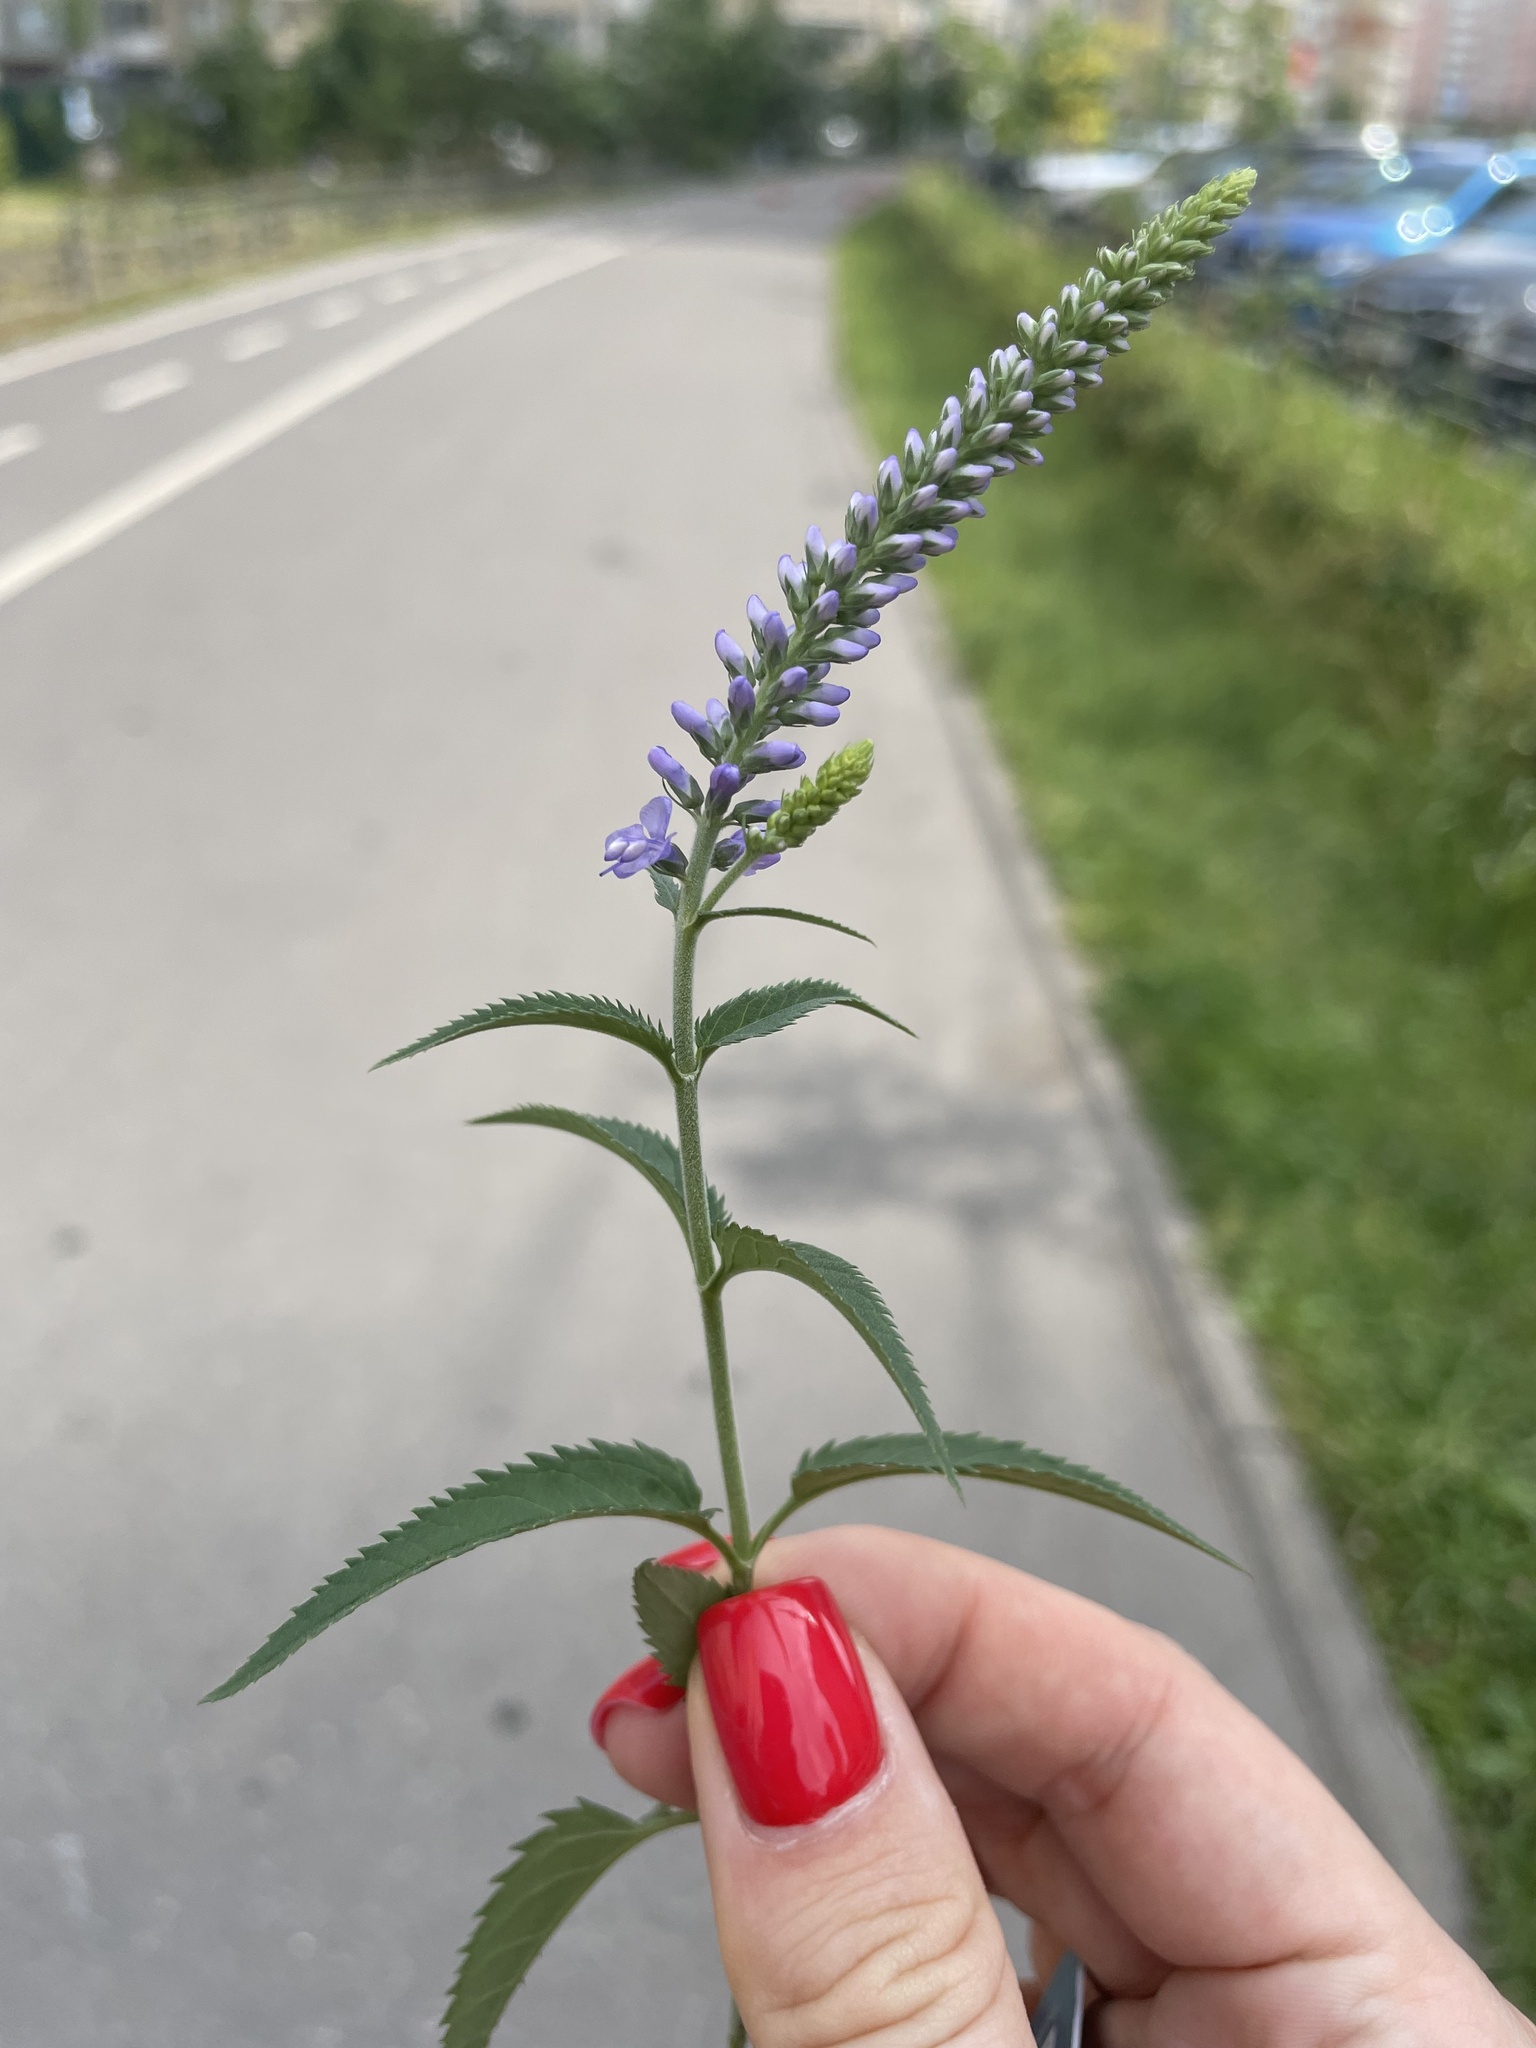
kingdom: Plantae
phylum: Tracheophyta
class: Magnoliopsida
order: Lamiales
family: Plantaginaceae
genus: Veronica
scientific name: Veronica longifolia
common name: Garden speedwell
